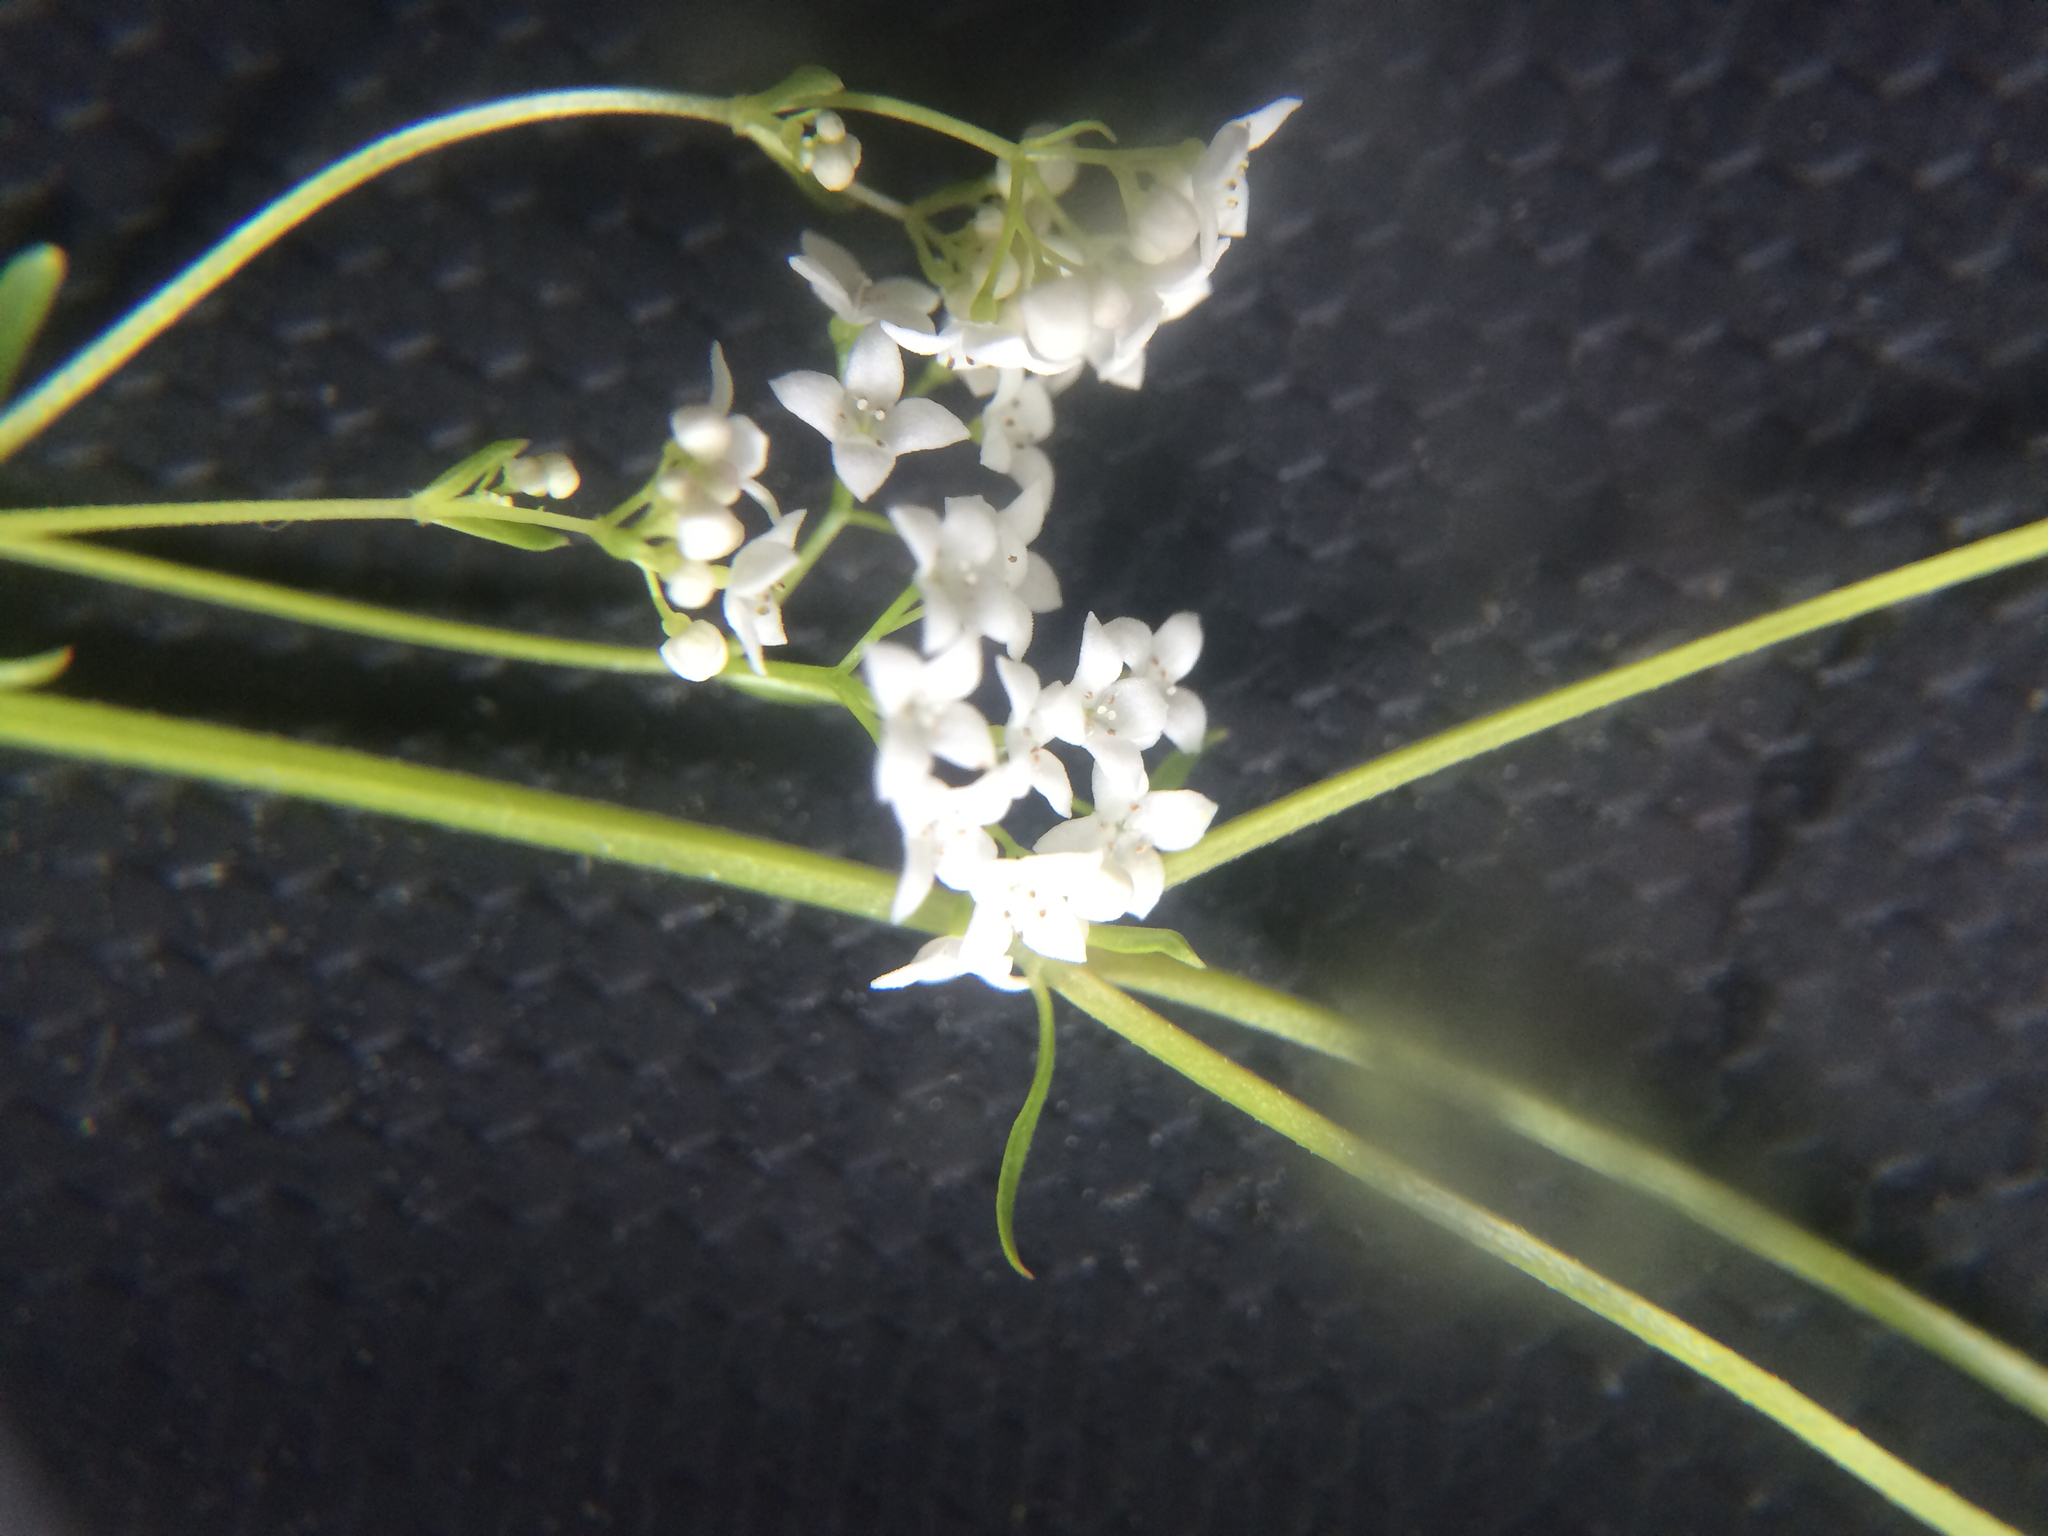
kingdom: Plantae
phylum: Tracheophyta
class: Magnoliopsida
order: Gentianales
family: Rubiaceae
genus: Galium
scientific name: Galium album
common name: White bedstraw
